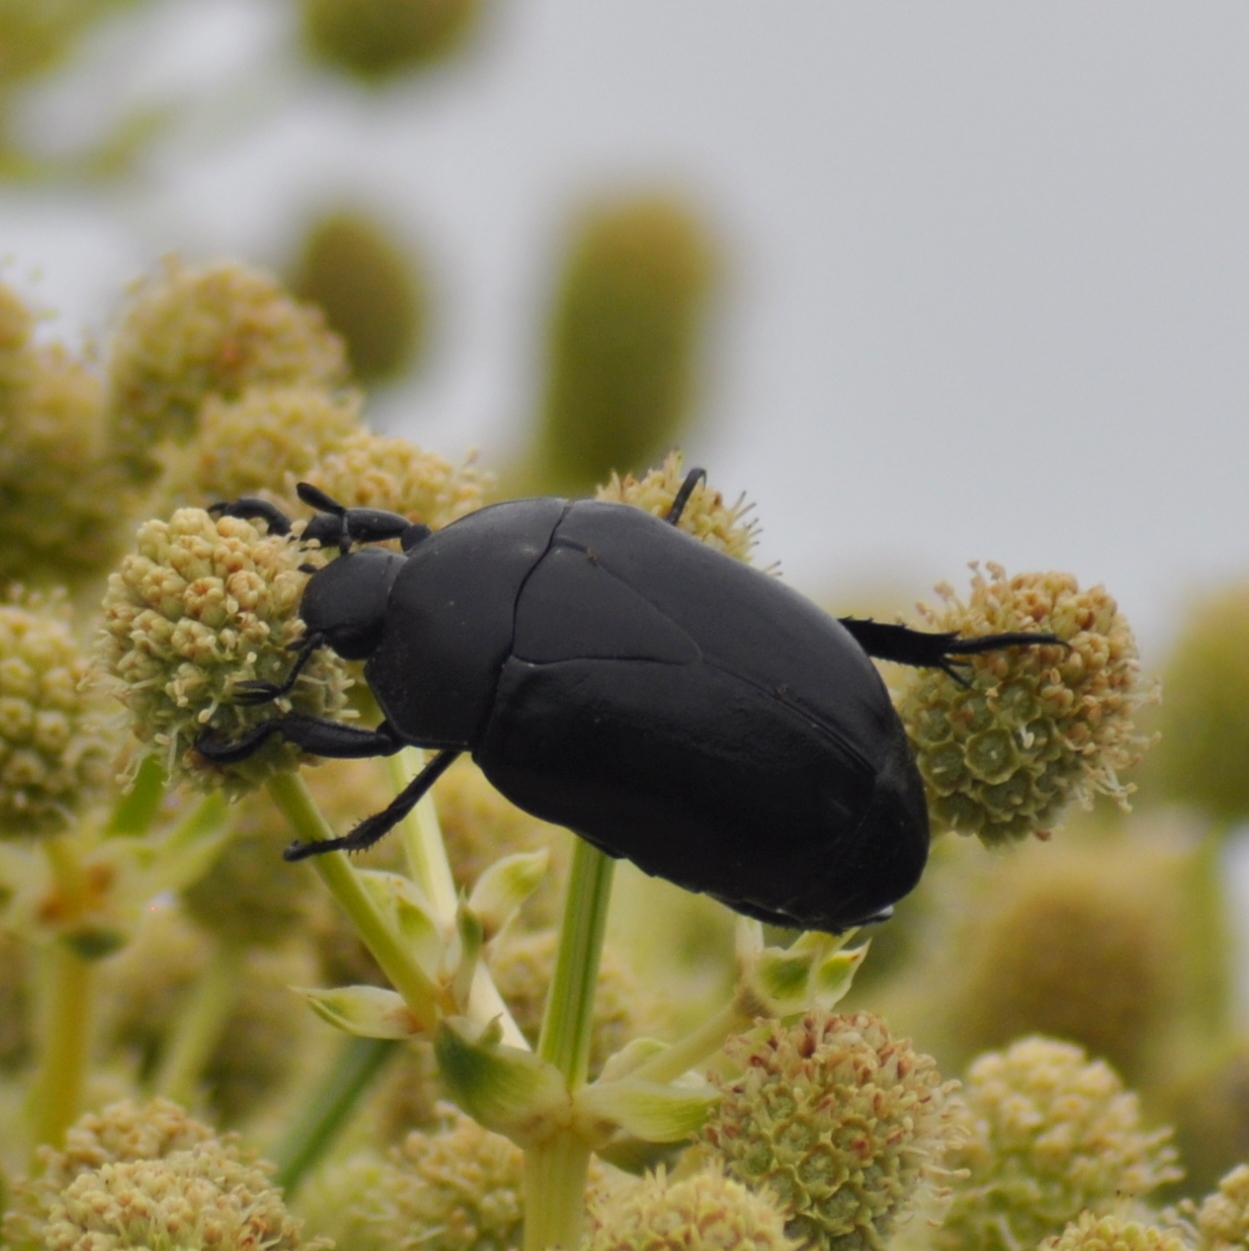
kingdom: Animalia
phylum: Arthropoda
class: Insecta
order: Coleoptera
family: Scarabaeidae
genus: Macraspis
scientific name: Macraspis morio
